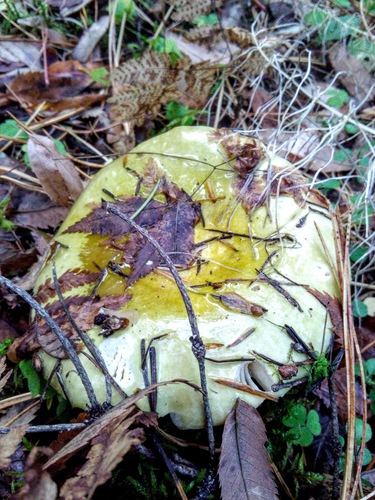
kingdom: Fungi
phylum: Basidiomycota
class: Agaricomycetes
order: Russulales
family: Russulaceae
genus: Russula
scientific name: Russula
